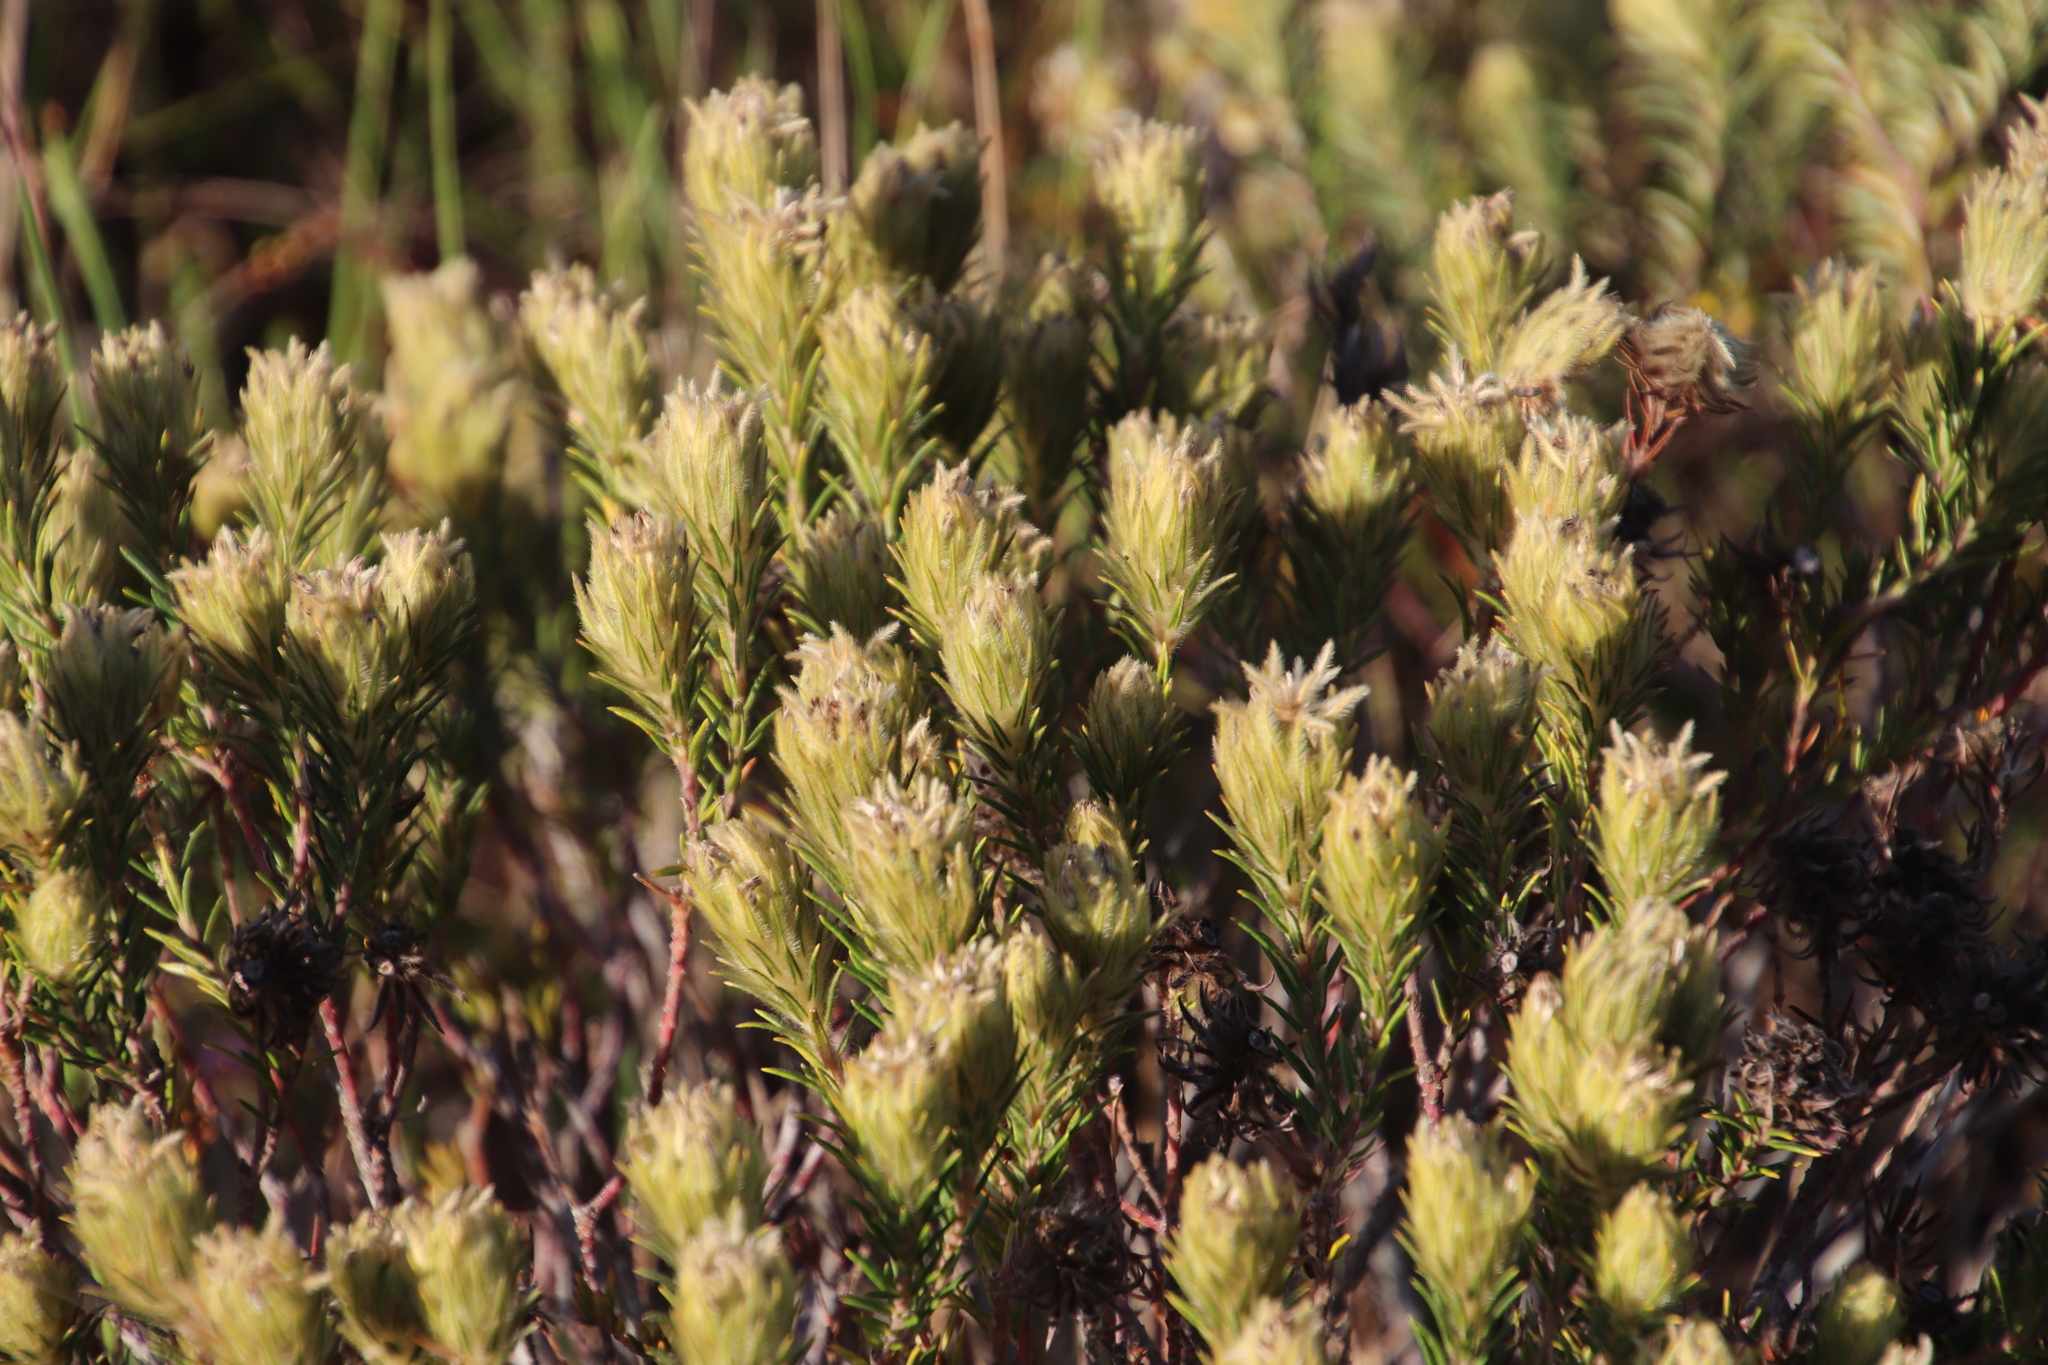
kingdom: Plantae
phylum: Tracheophyta
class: Magnoliopsida
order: Rosales
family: Rhamnaceae
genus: Phylica
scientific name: Phylica pubescens
